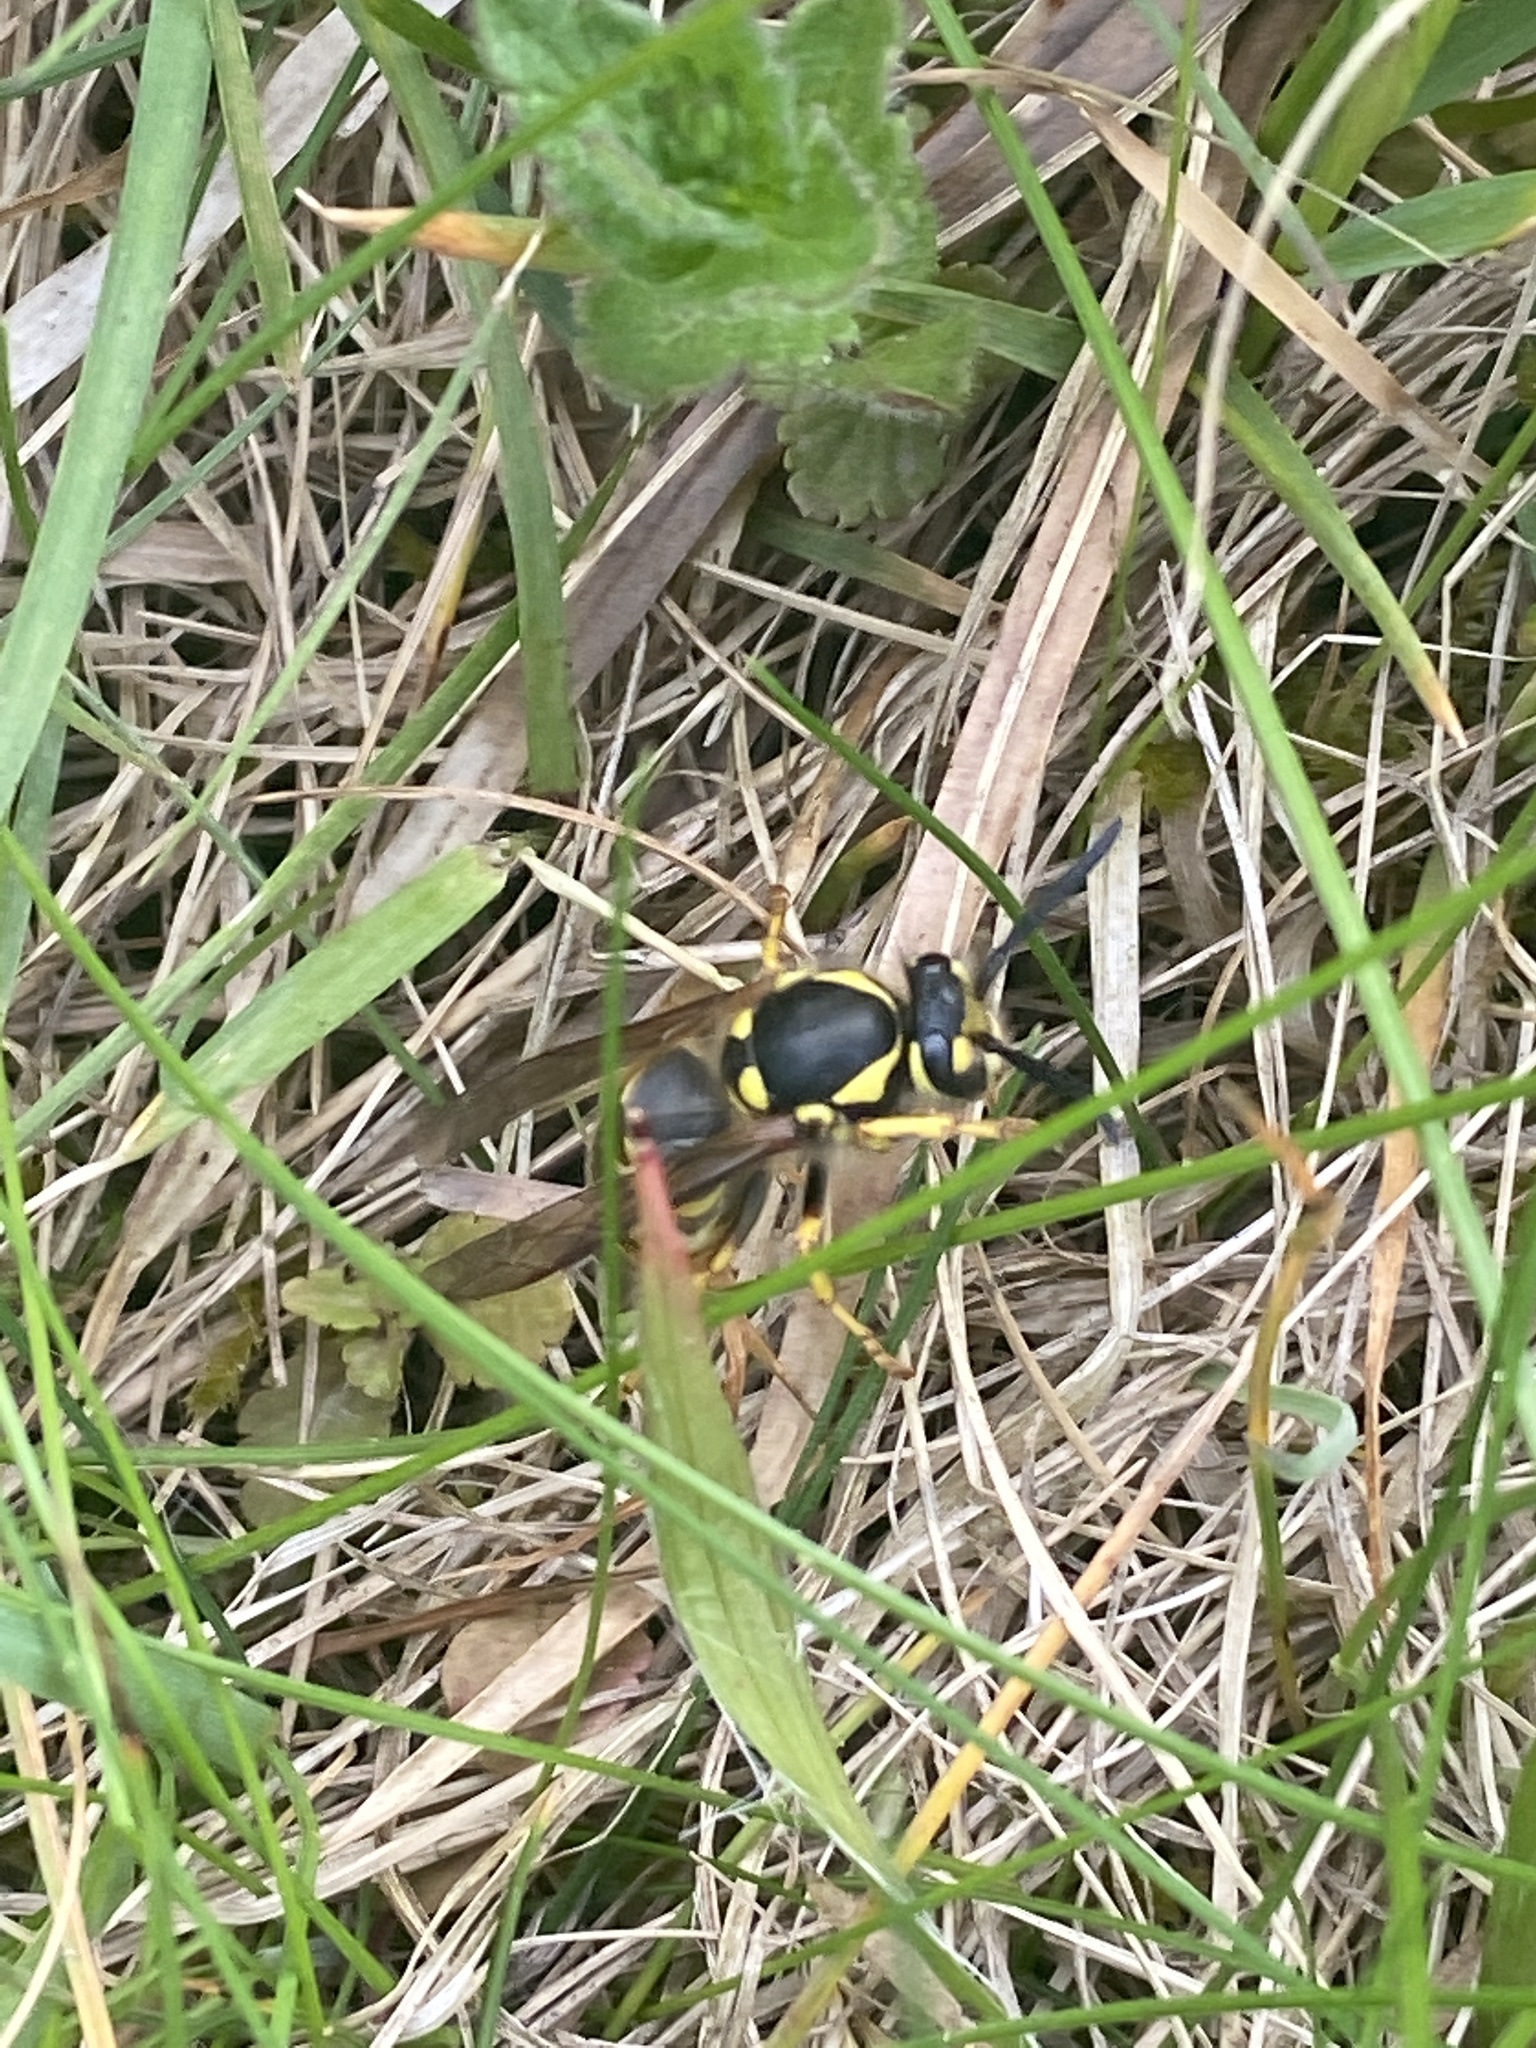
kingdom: Animalia
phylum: Arthropoda
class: Insecta
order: Hymenoptera
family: Vespidae
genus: Vespula
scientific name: Vespula germanica
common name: German wasp
